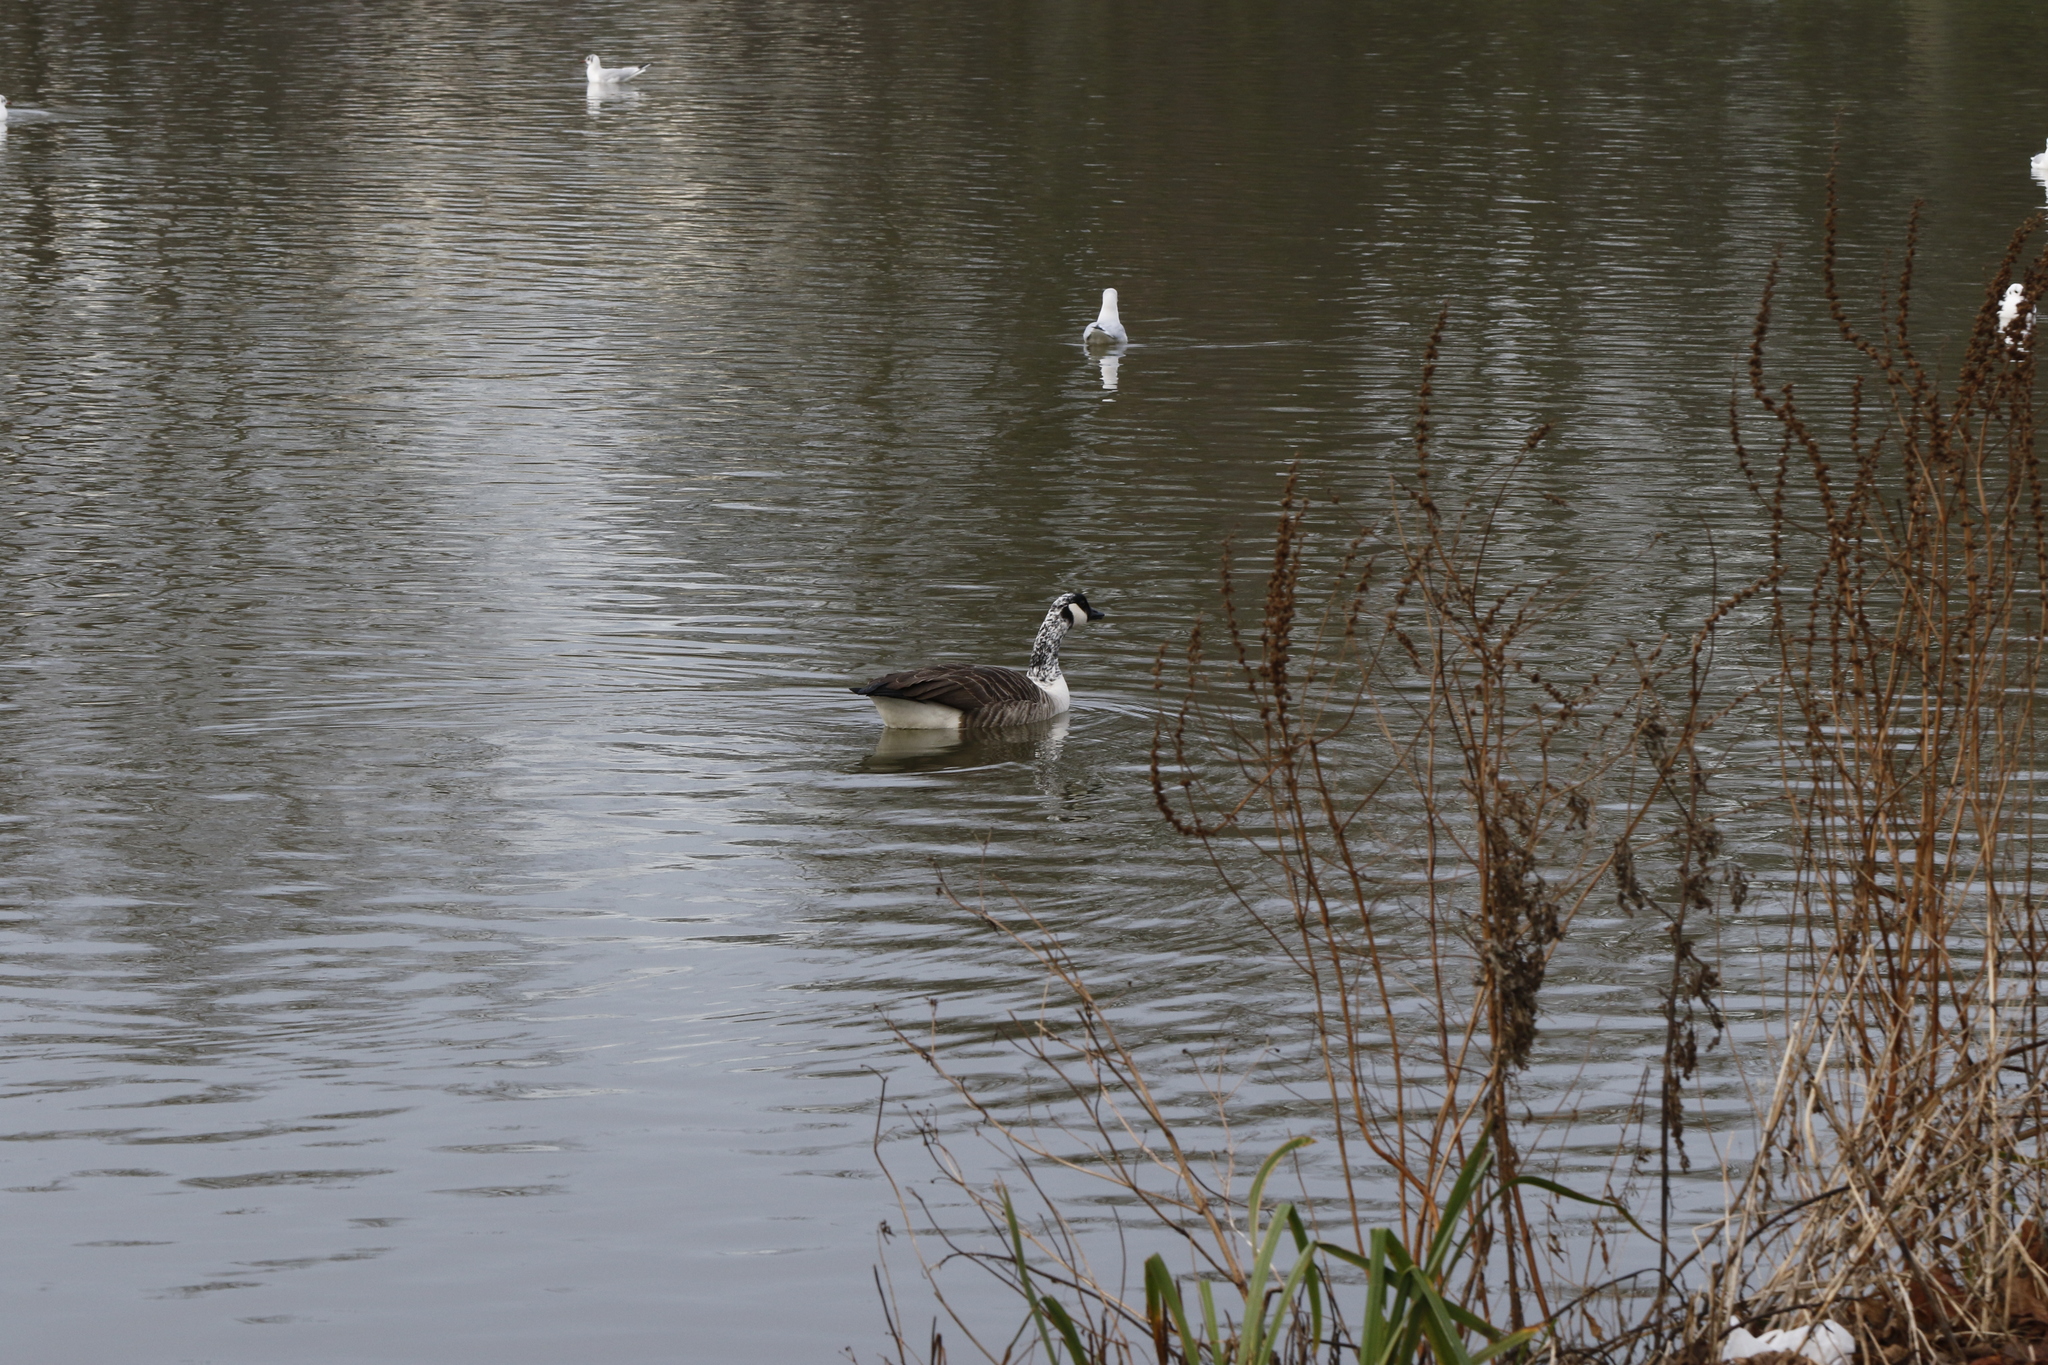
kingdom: Animalia
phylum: Chordata
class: Aves
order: Anseriformes
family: Anatidae
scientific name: Anatidae
